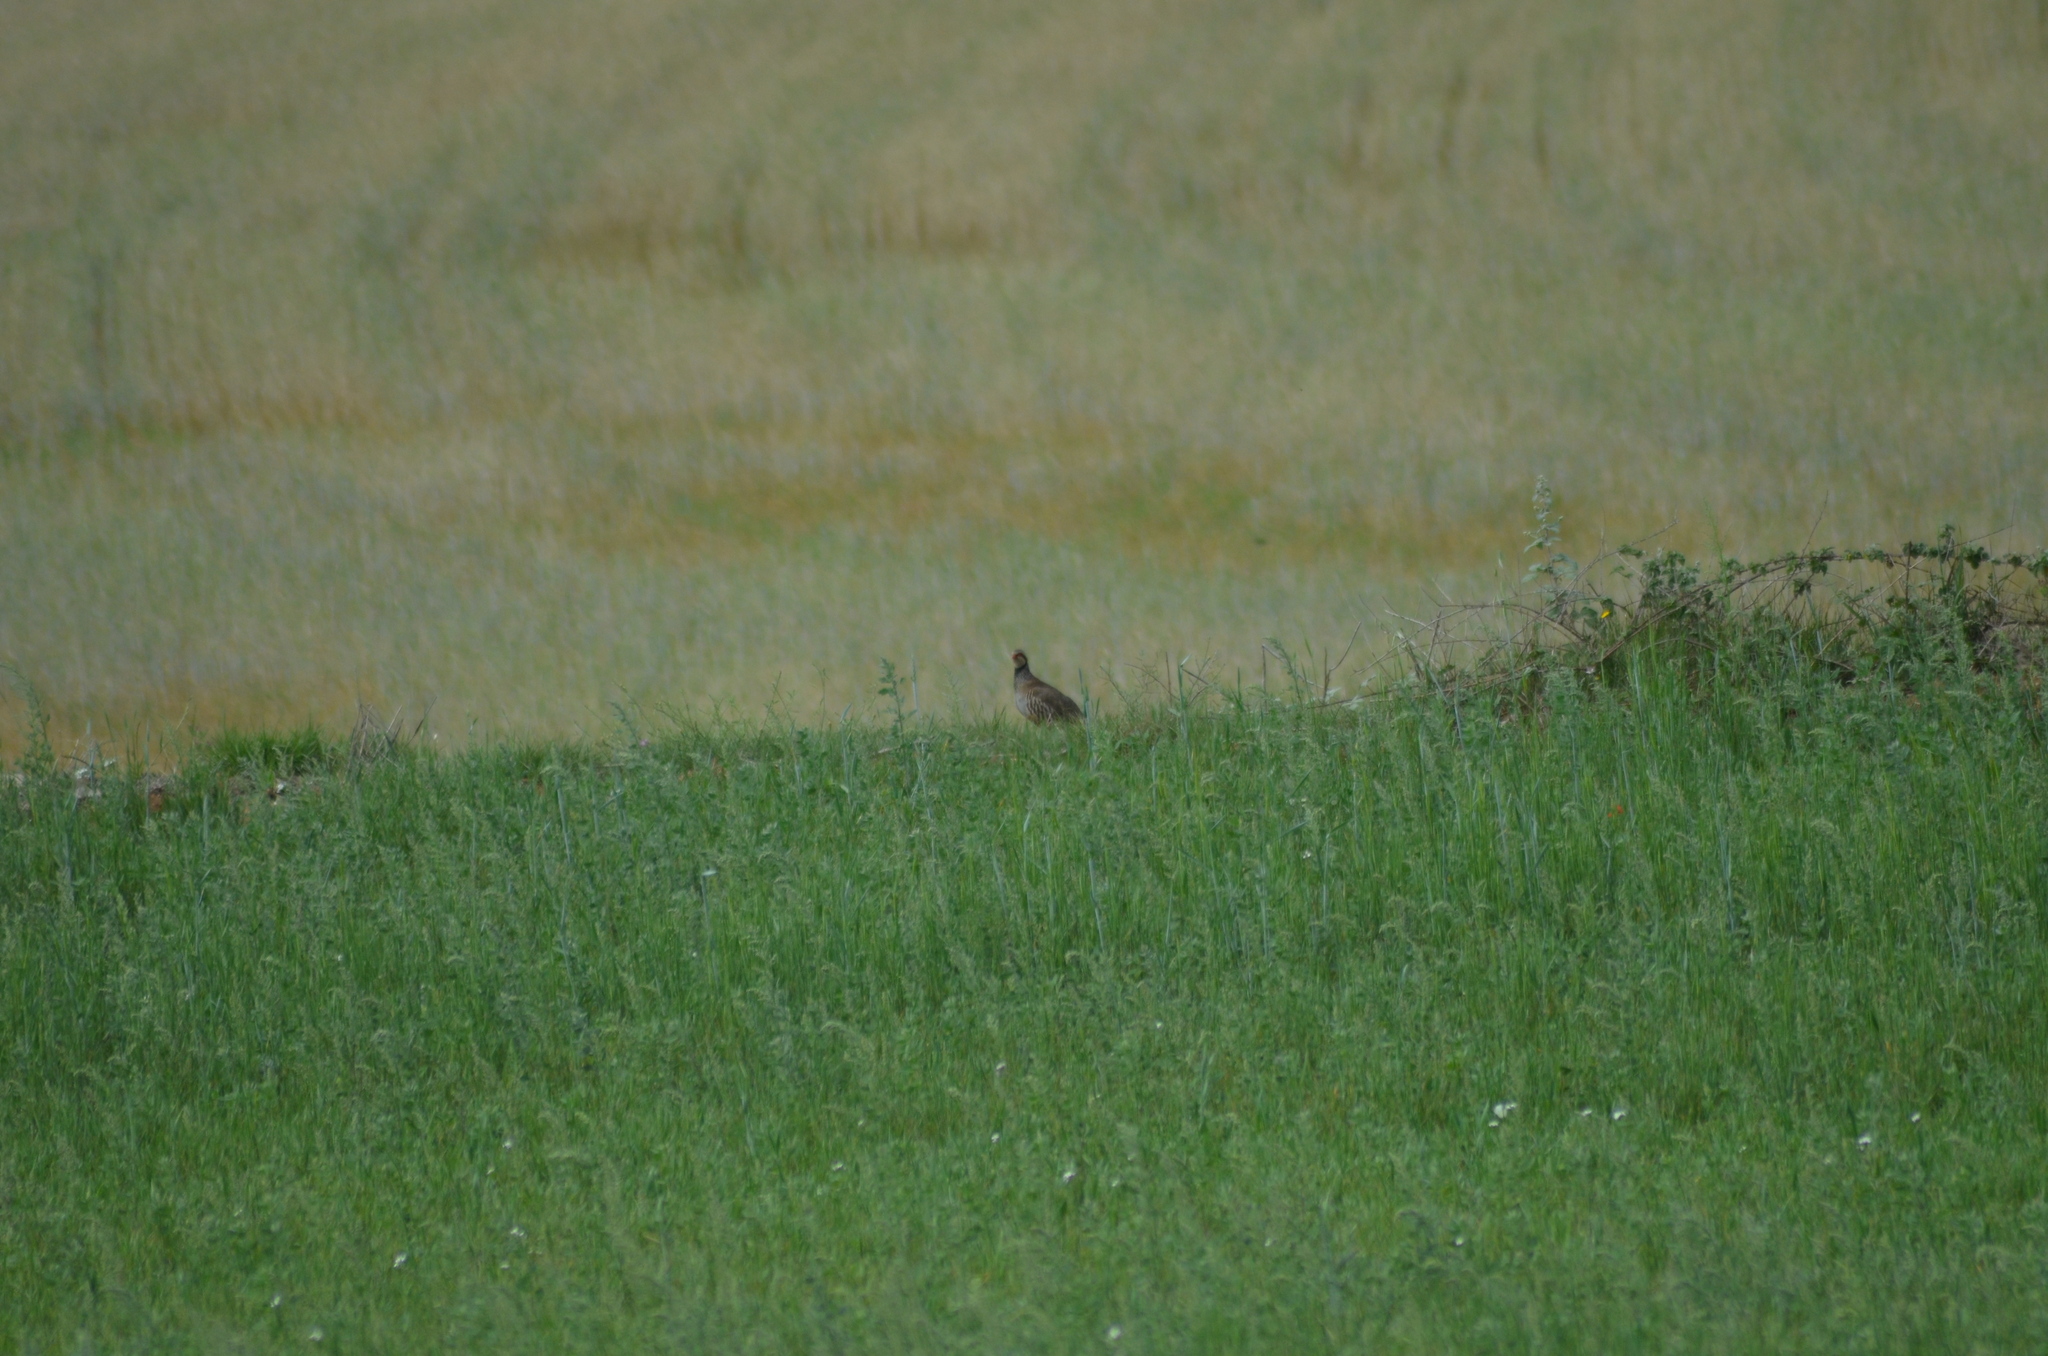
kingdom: Animalia
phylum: Chordata
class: Aves
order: Galliformes
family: Phasianidae
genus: Alectoris
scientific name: Alectoris rufa
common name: Red-legged partridge
